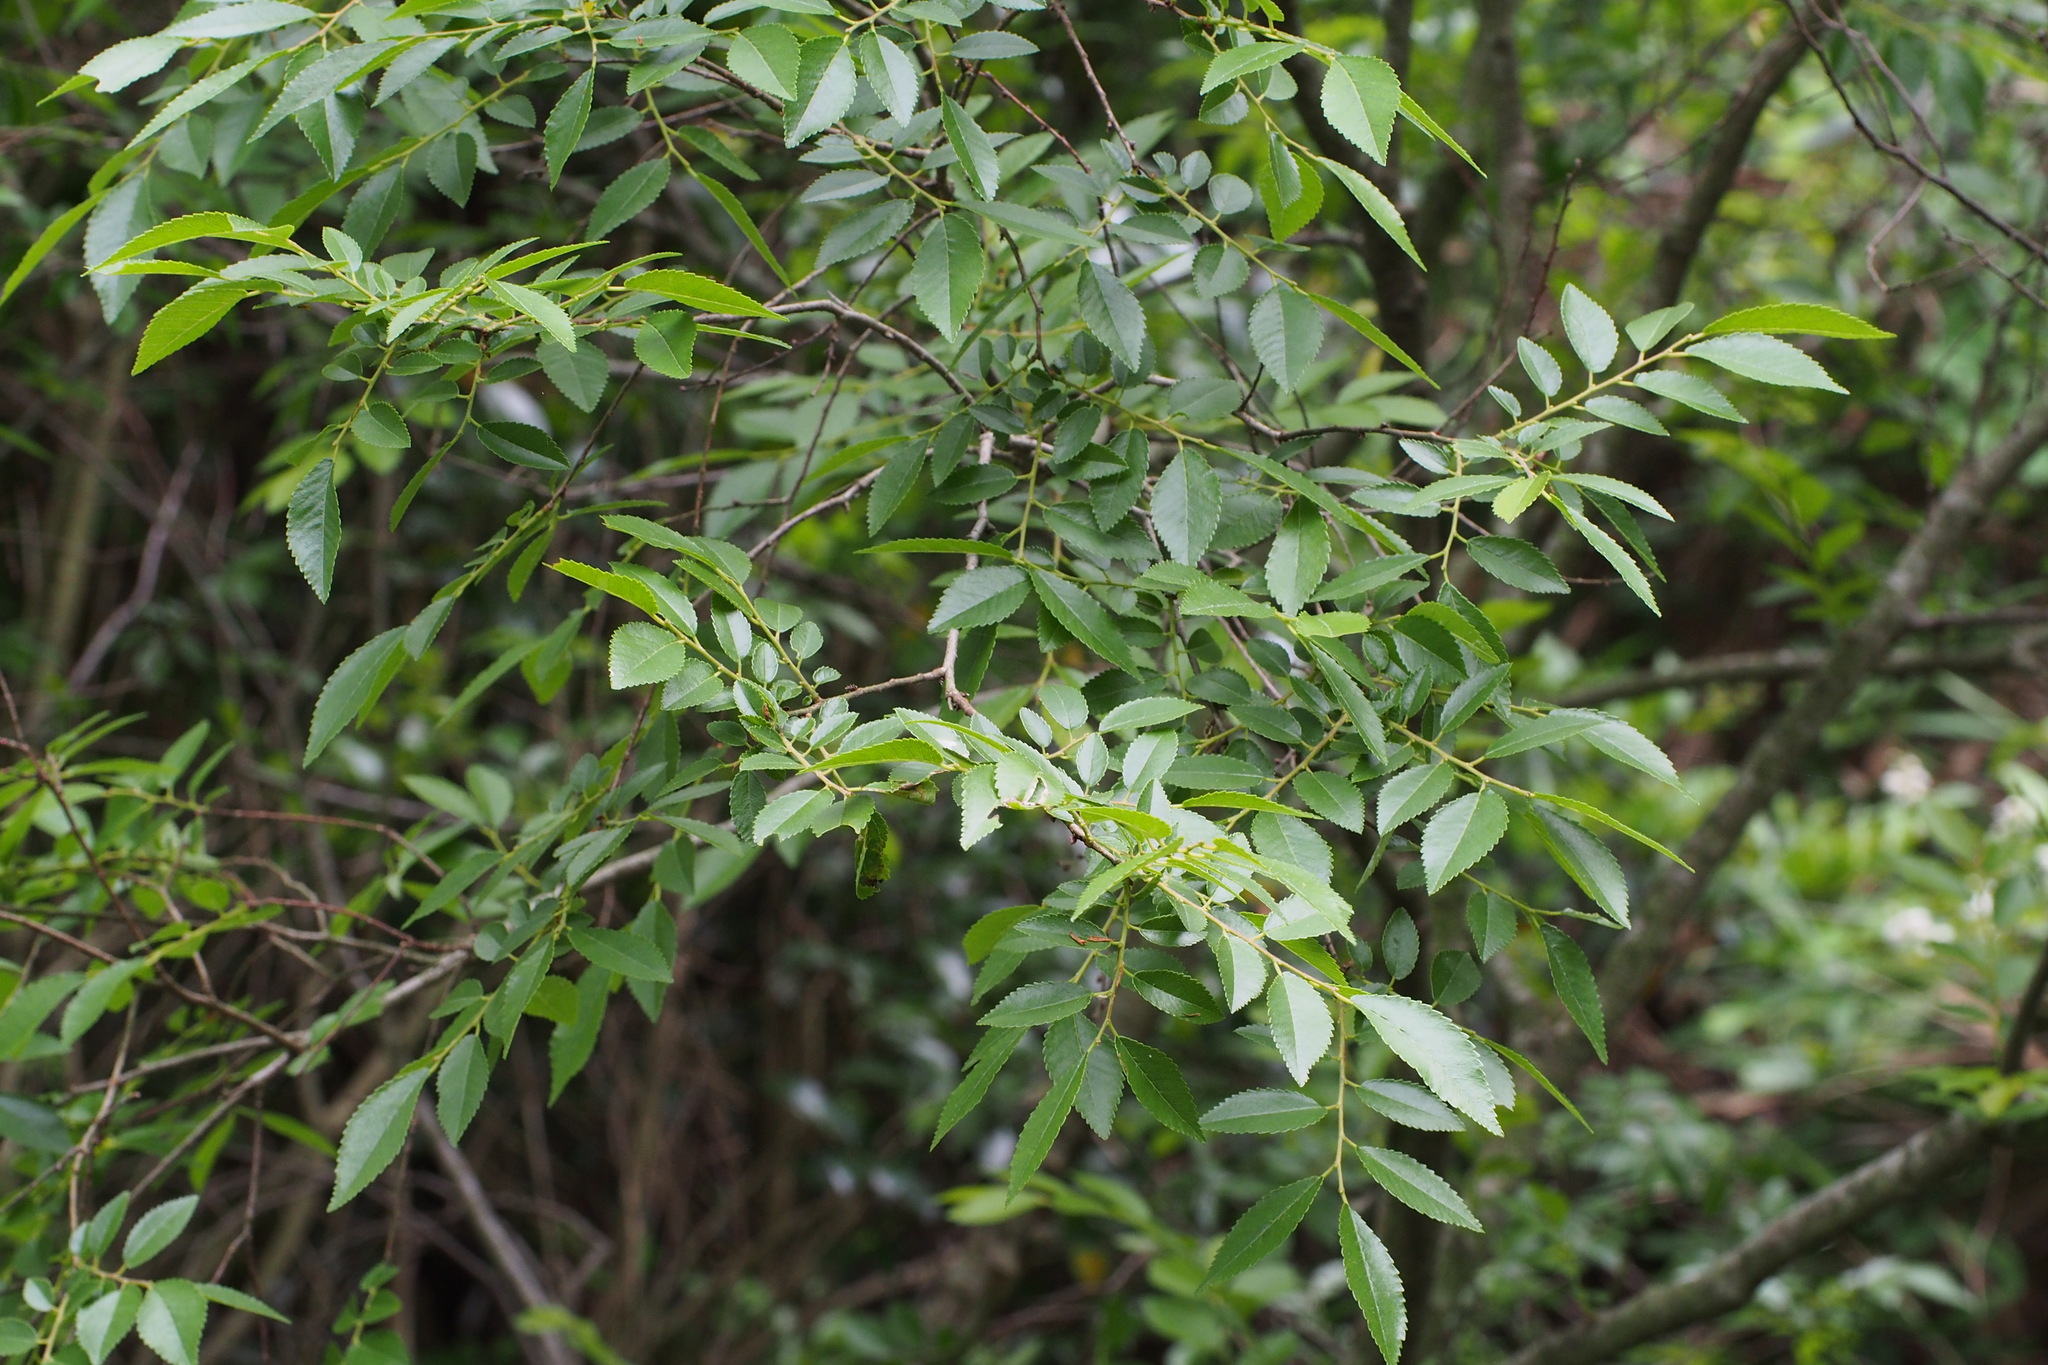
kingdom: Plantae
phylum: Tracheophyta
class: Magnoliopsida
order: Rosales
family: Ulmaceae
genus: Ulmus
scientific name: Ulmus parvifolia
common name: Chinese elm
